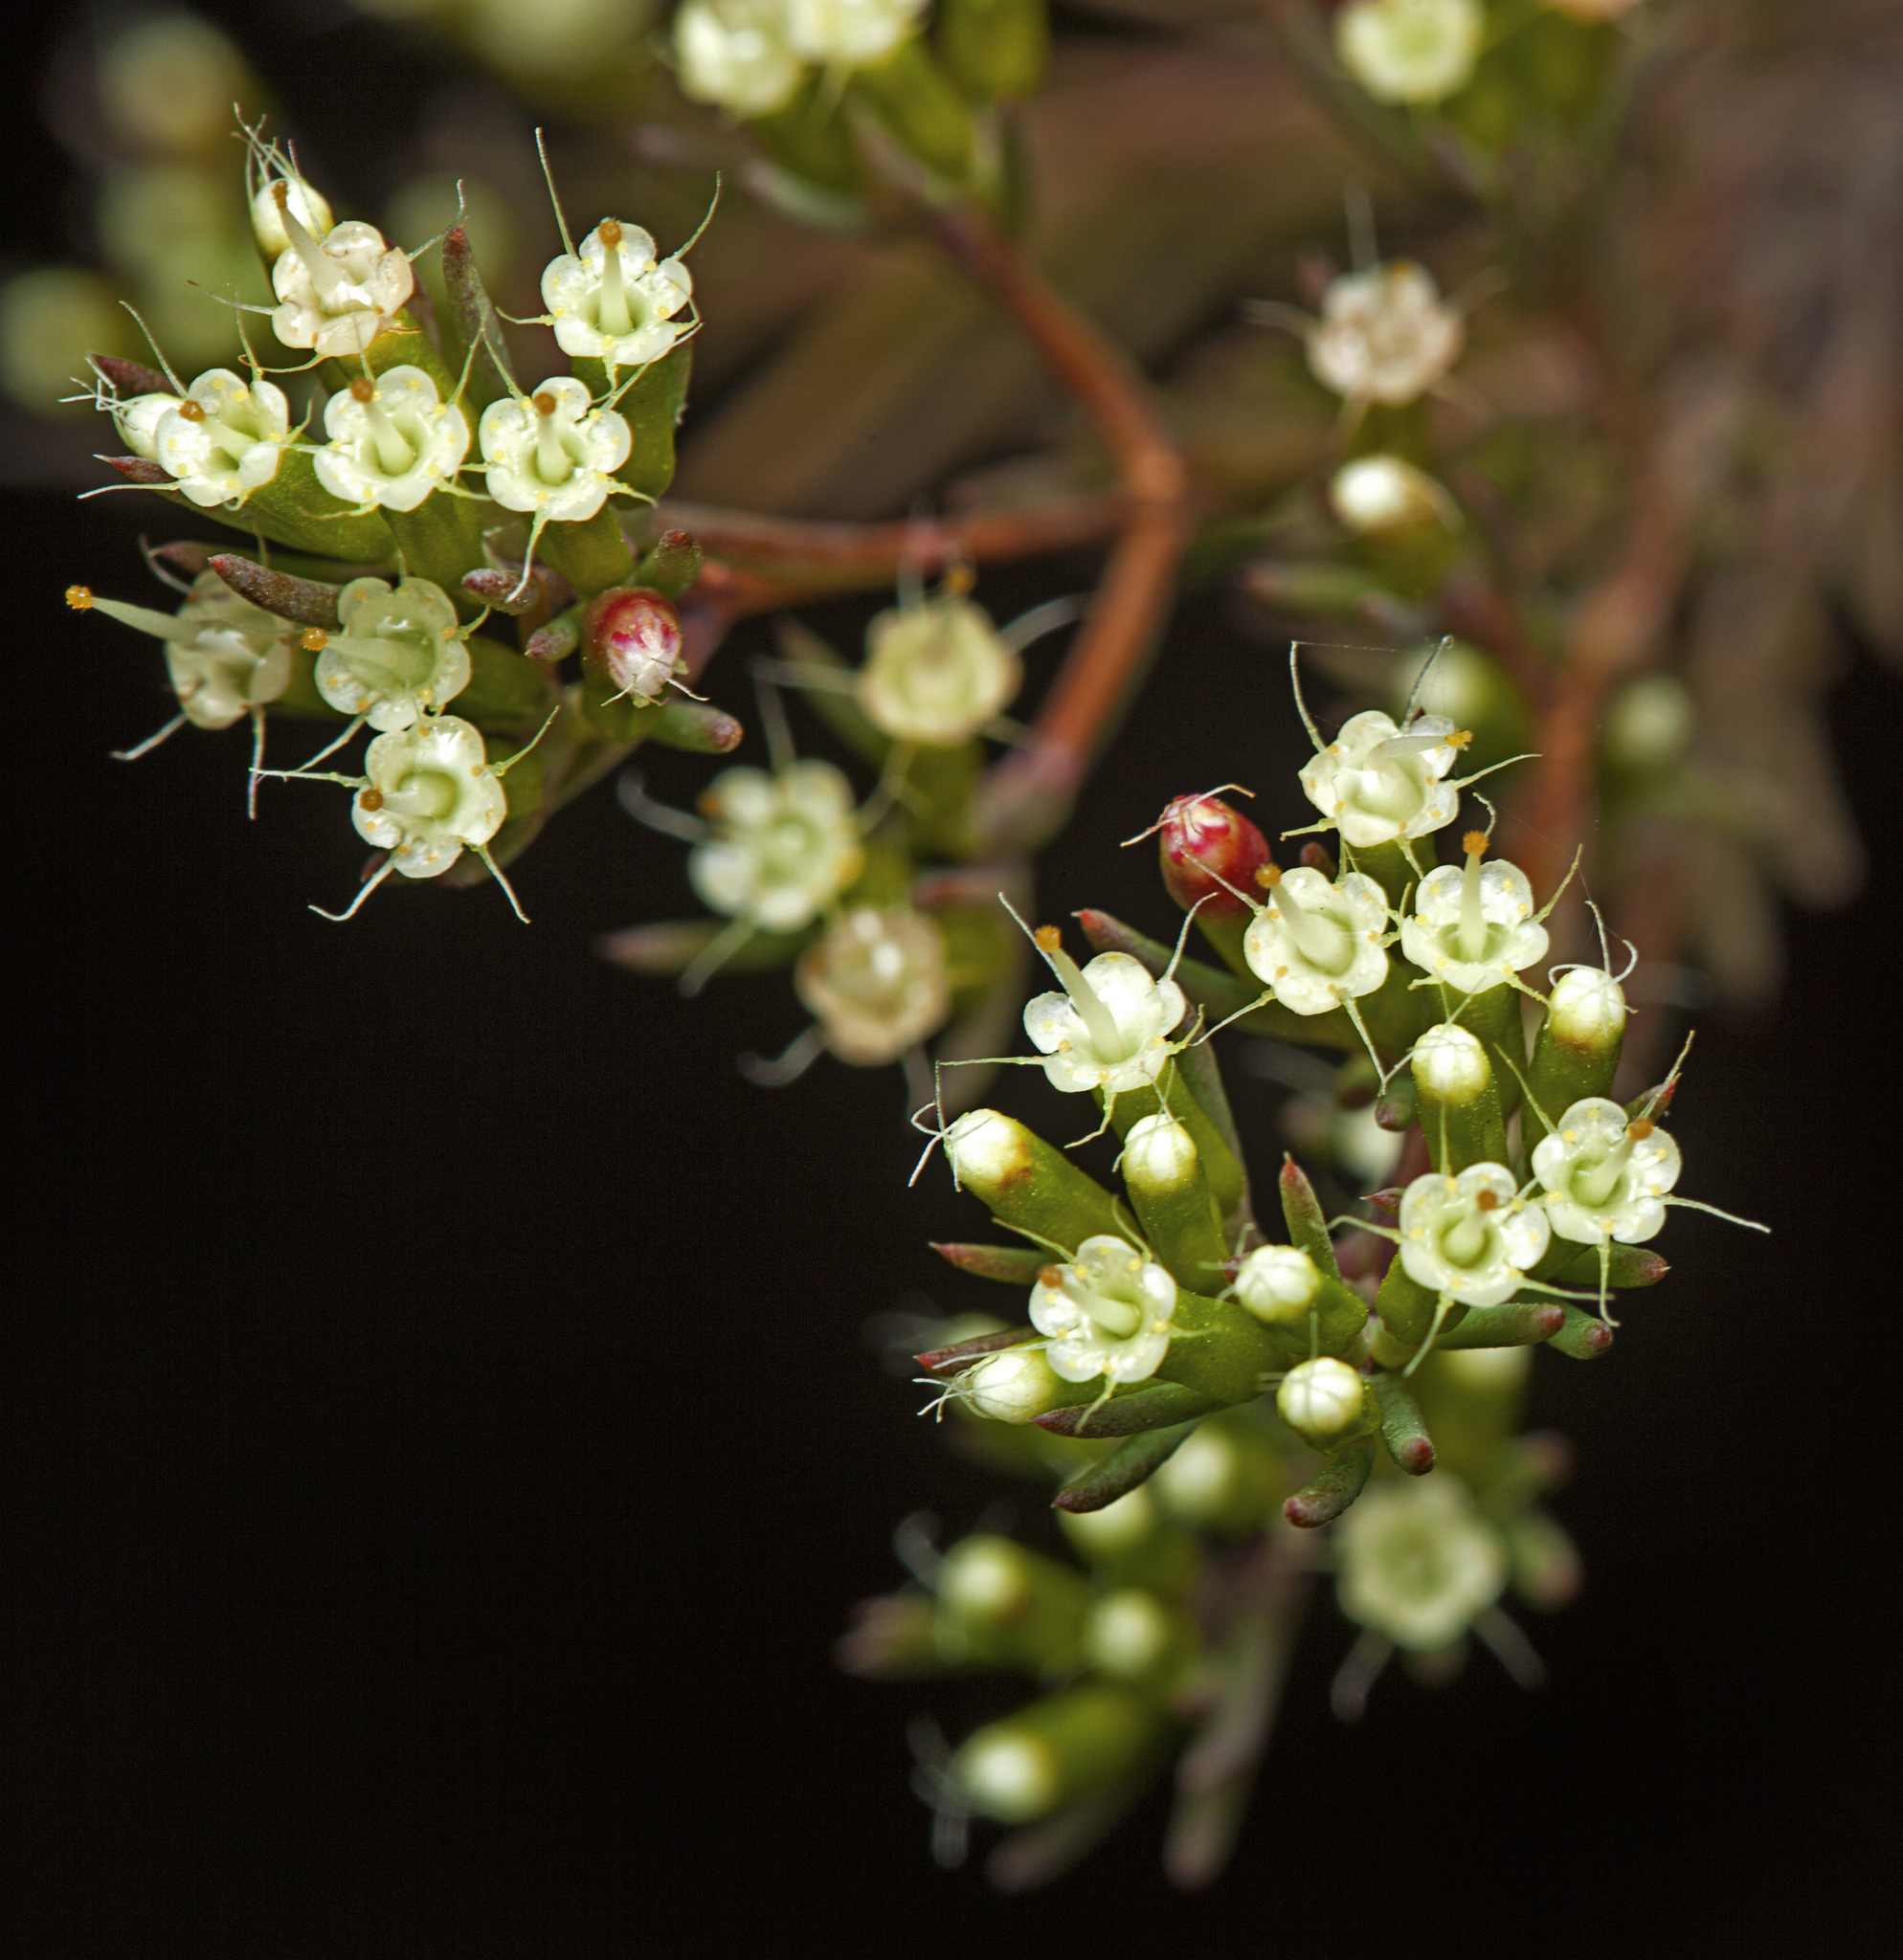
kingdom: Plantae
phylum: Tracheophyta
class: Magnoliopsida
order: Myrtales
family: Myrtaceae
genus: Homoranthus
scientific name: Homoranthus virgatus
